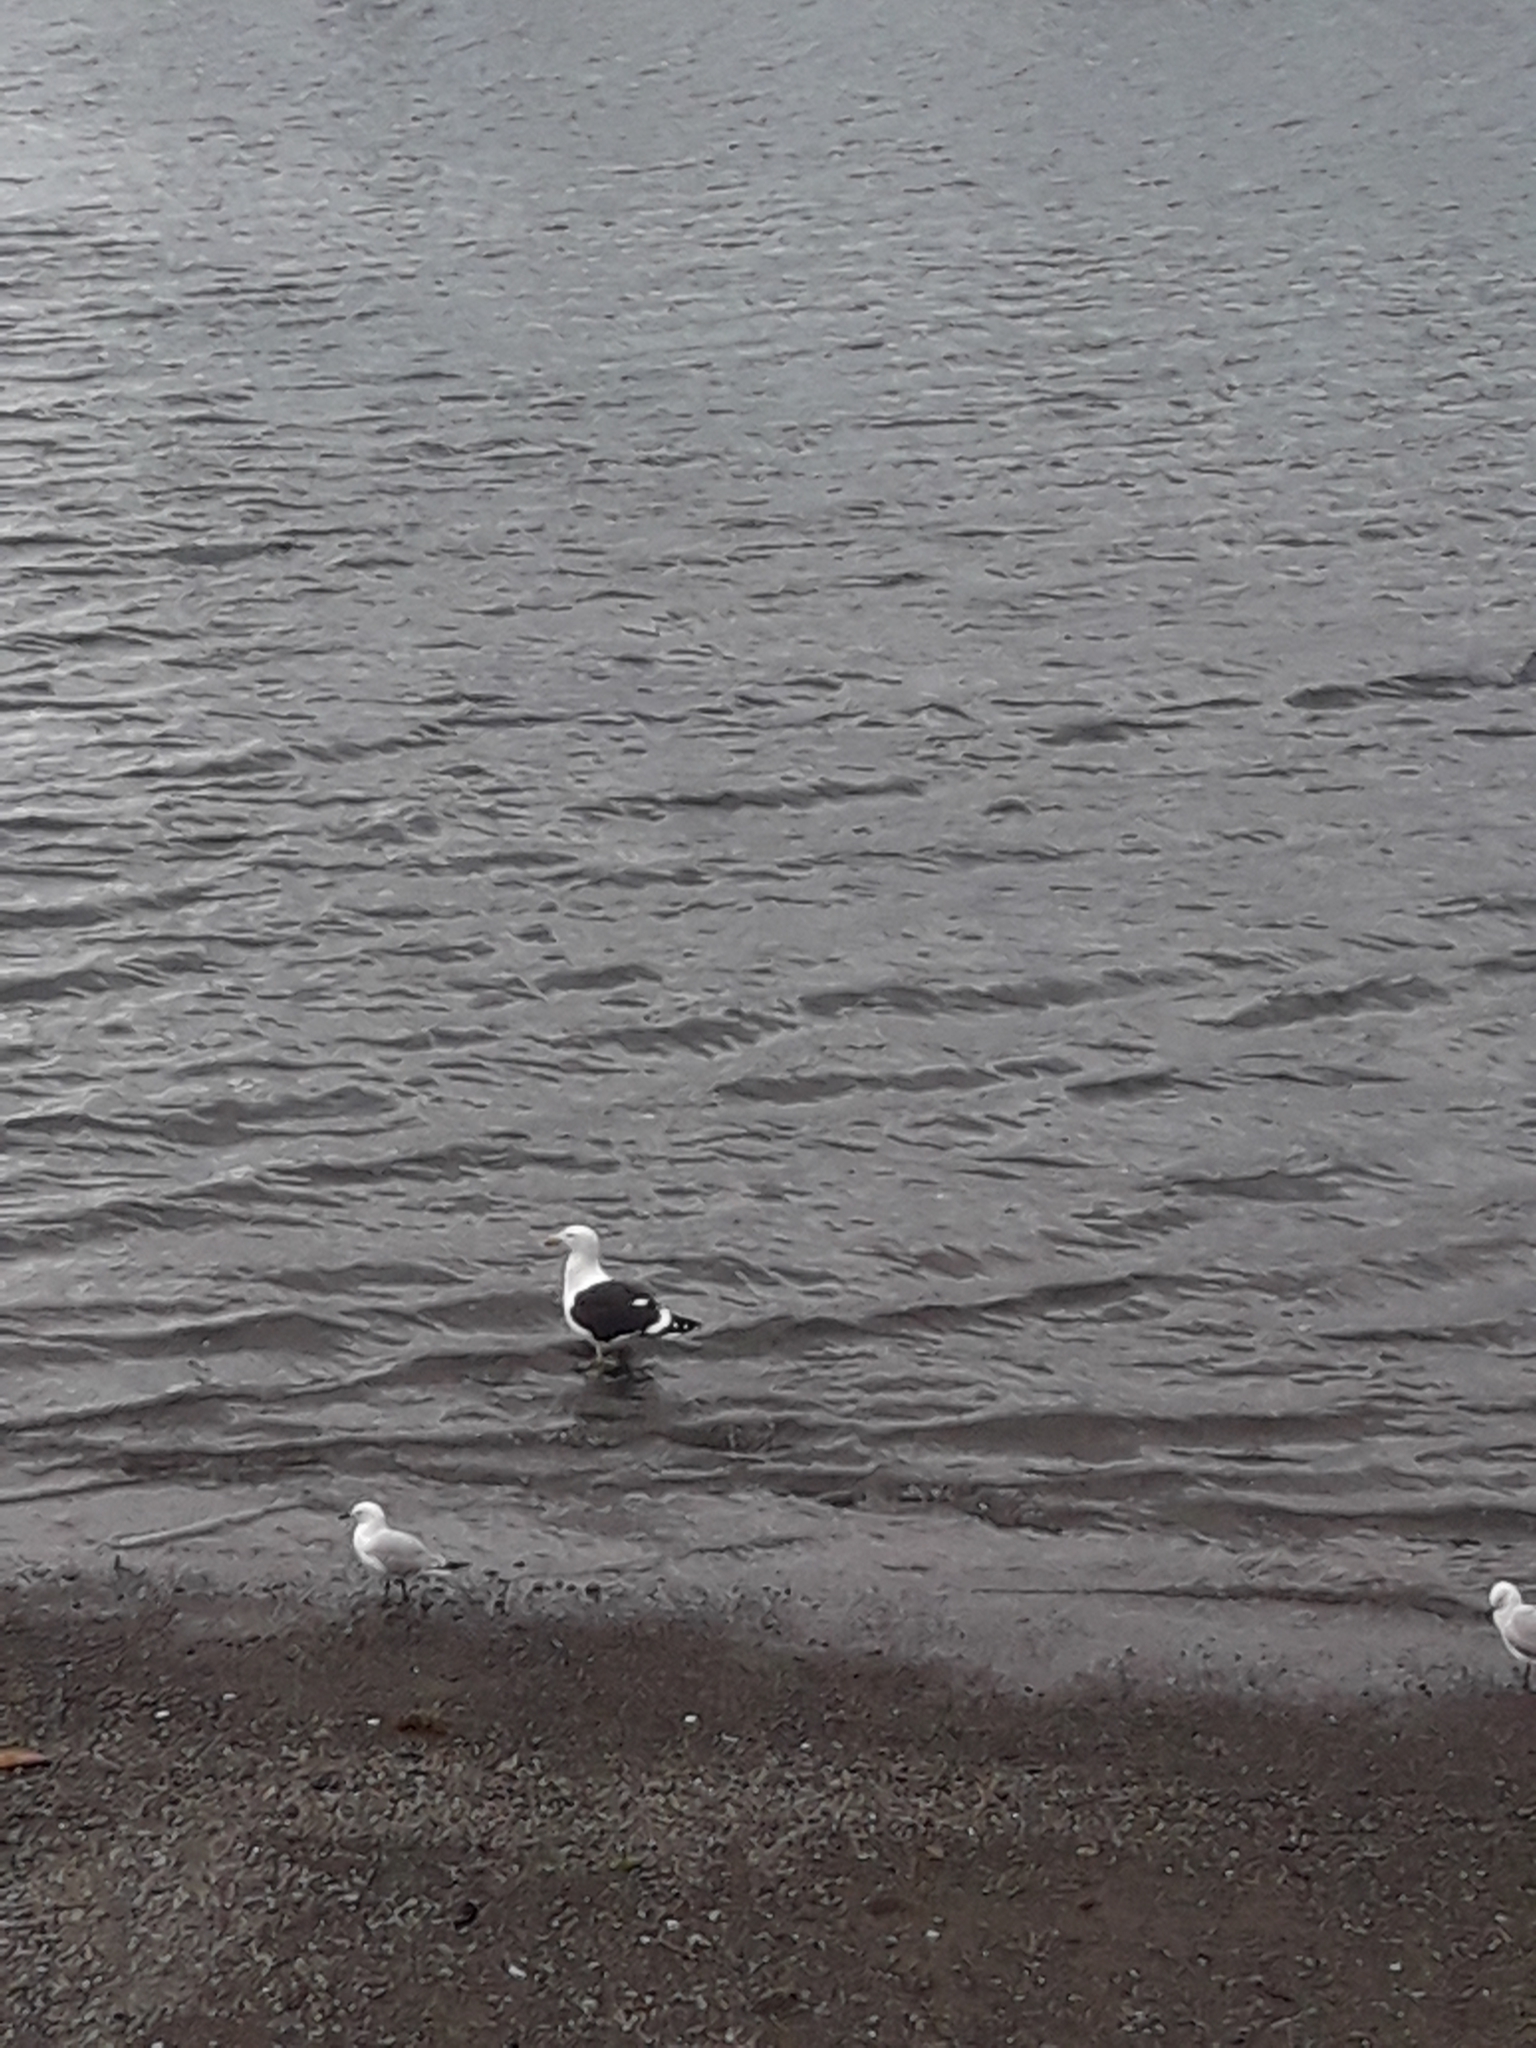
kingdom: Animalia
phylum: Chordata
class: Aves
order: Charadriiformes
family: Laridae
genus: Larus
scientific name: Larus dominicanus
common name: Kelp gull
